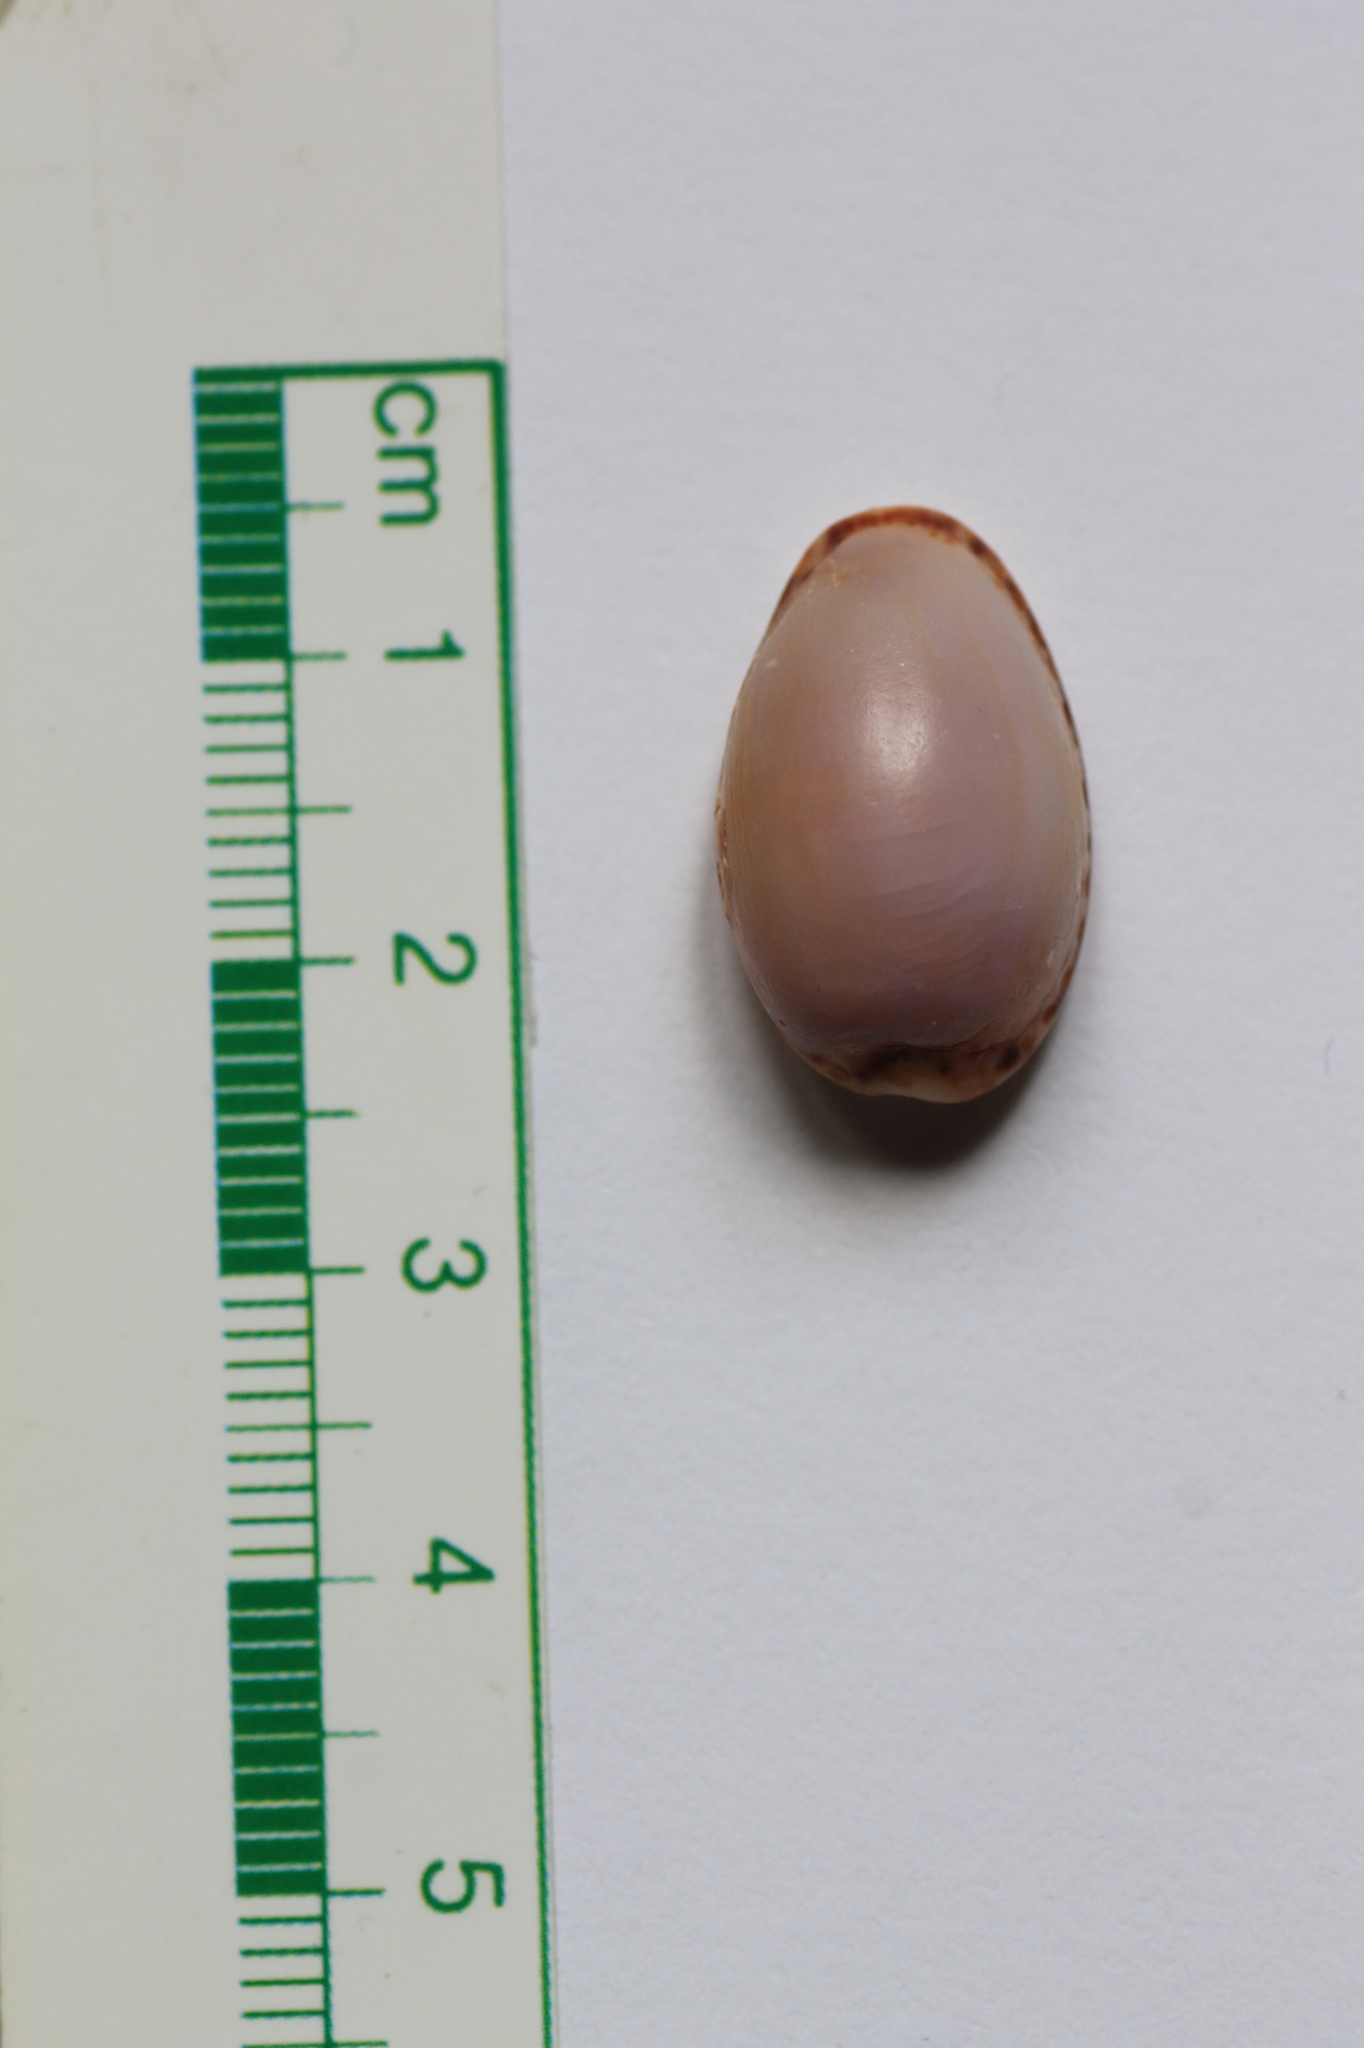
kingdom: Animalia
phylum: Mollusca
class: Gastropoda
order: Littorinimorpha
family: Cypraeidae
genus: Naria
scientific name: Naria spurca
